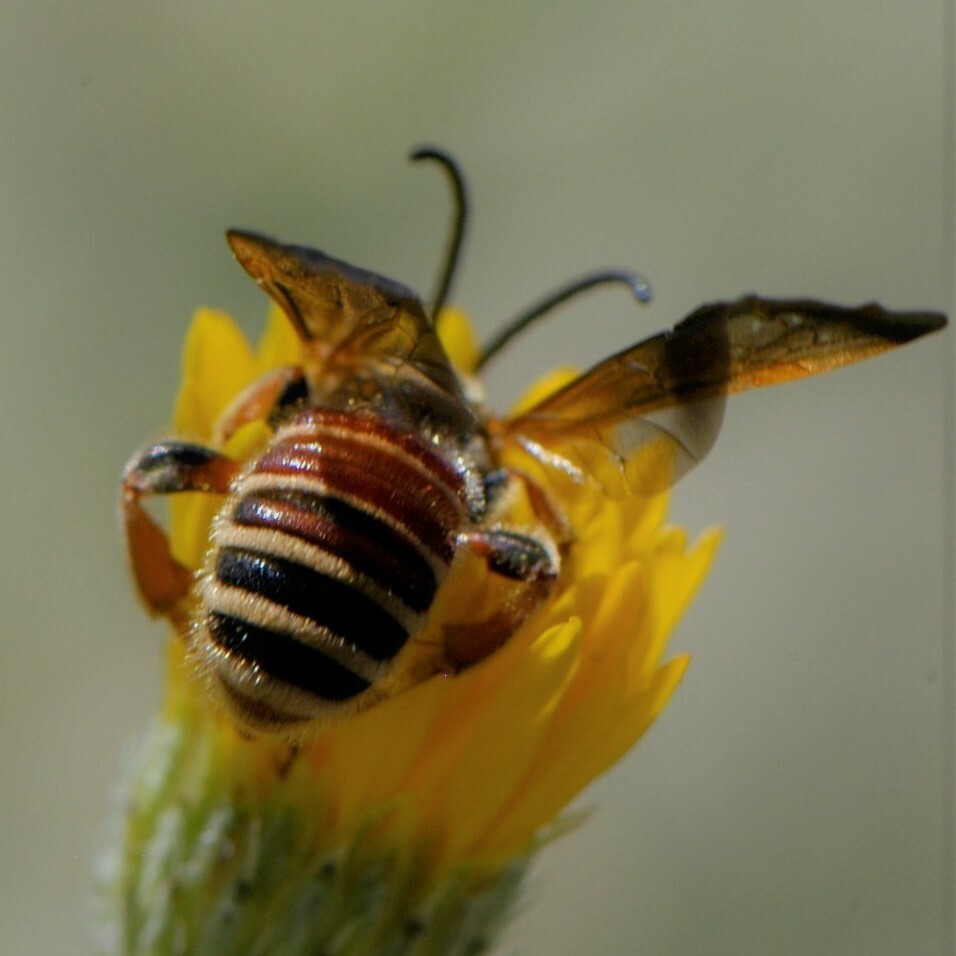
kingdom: Animalia
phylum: Arthropoda
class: Insecta
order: Hymenoptera
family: Halictidae
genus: Dieunomia
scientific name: Dieunomia nevadensis
